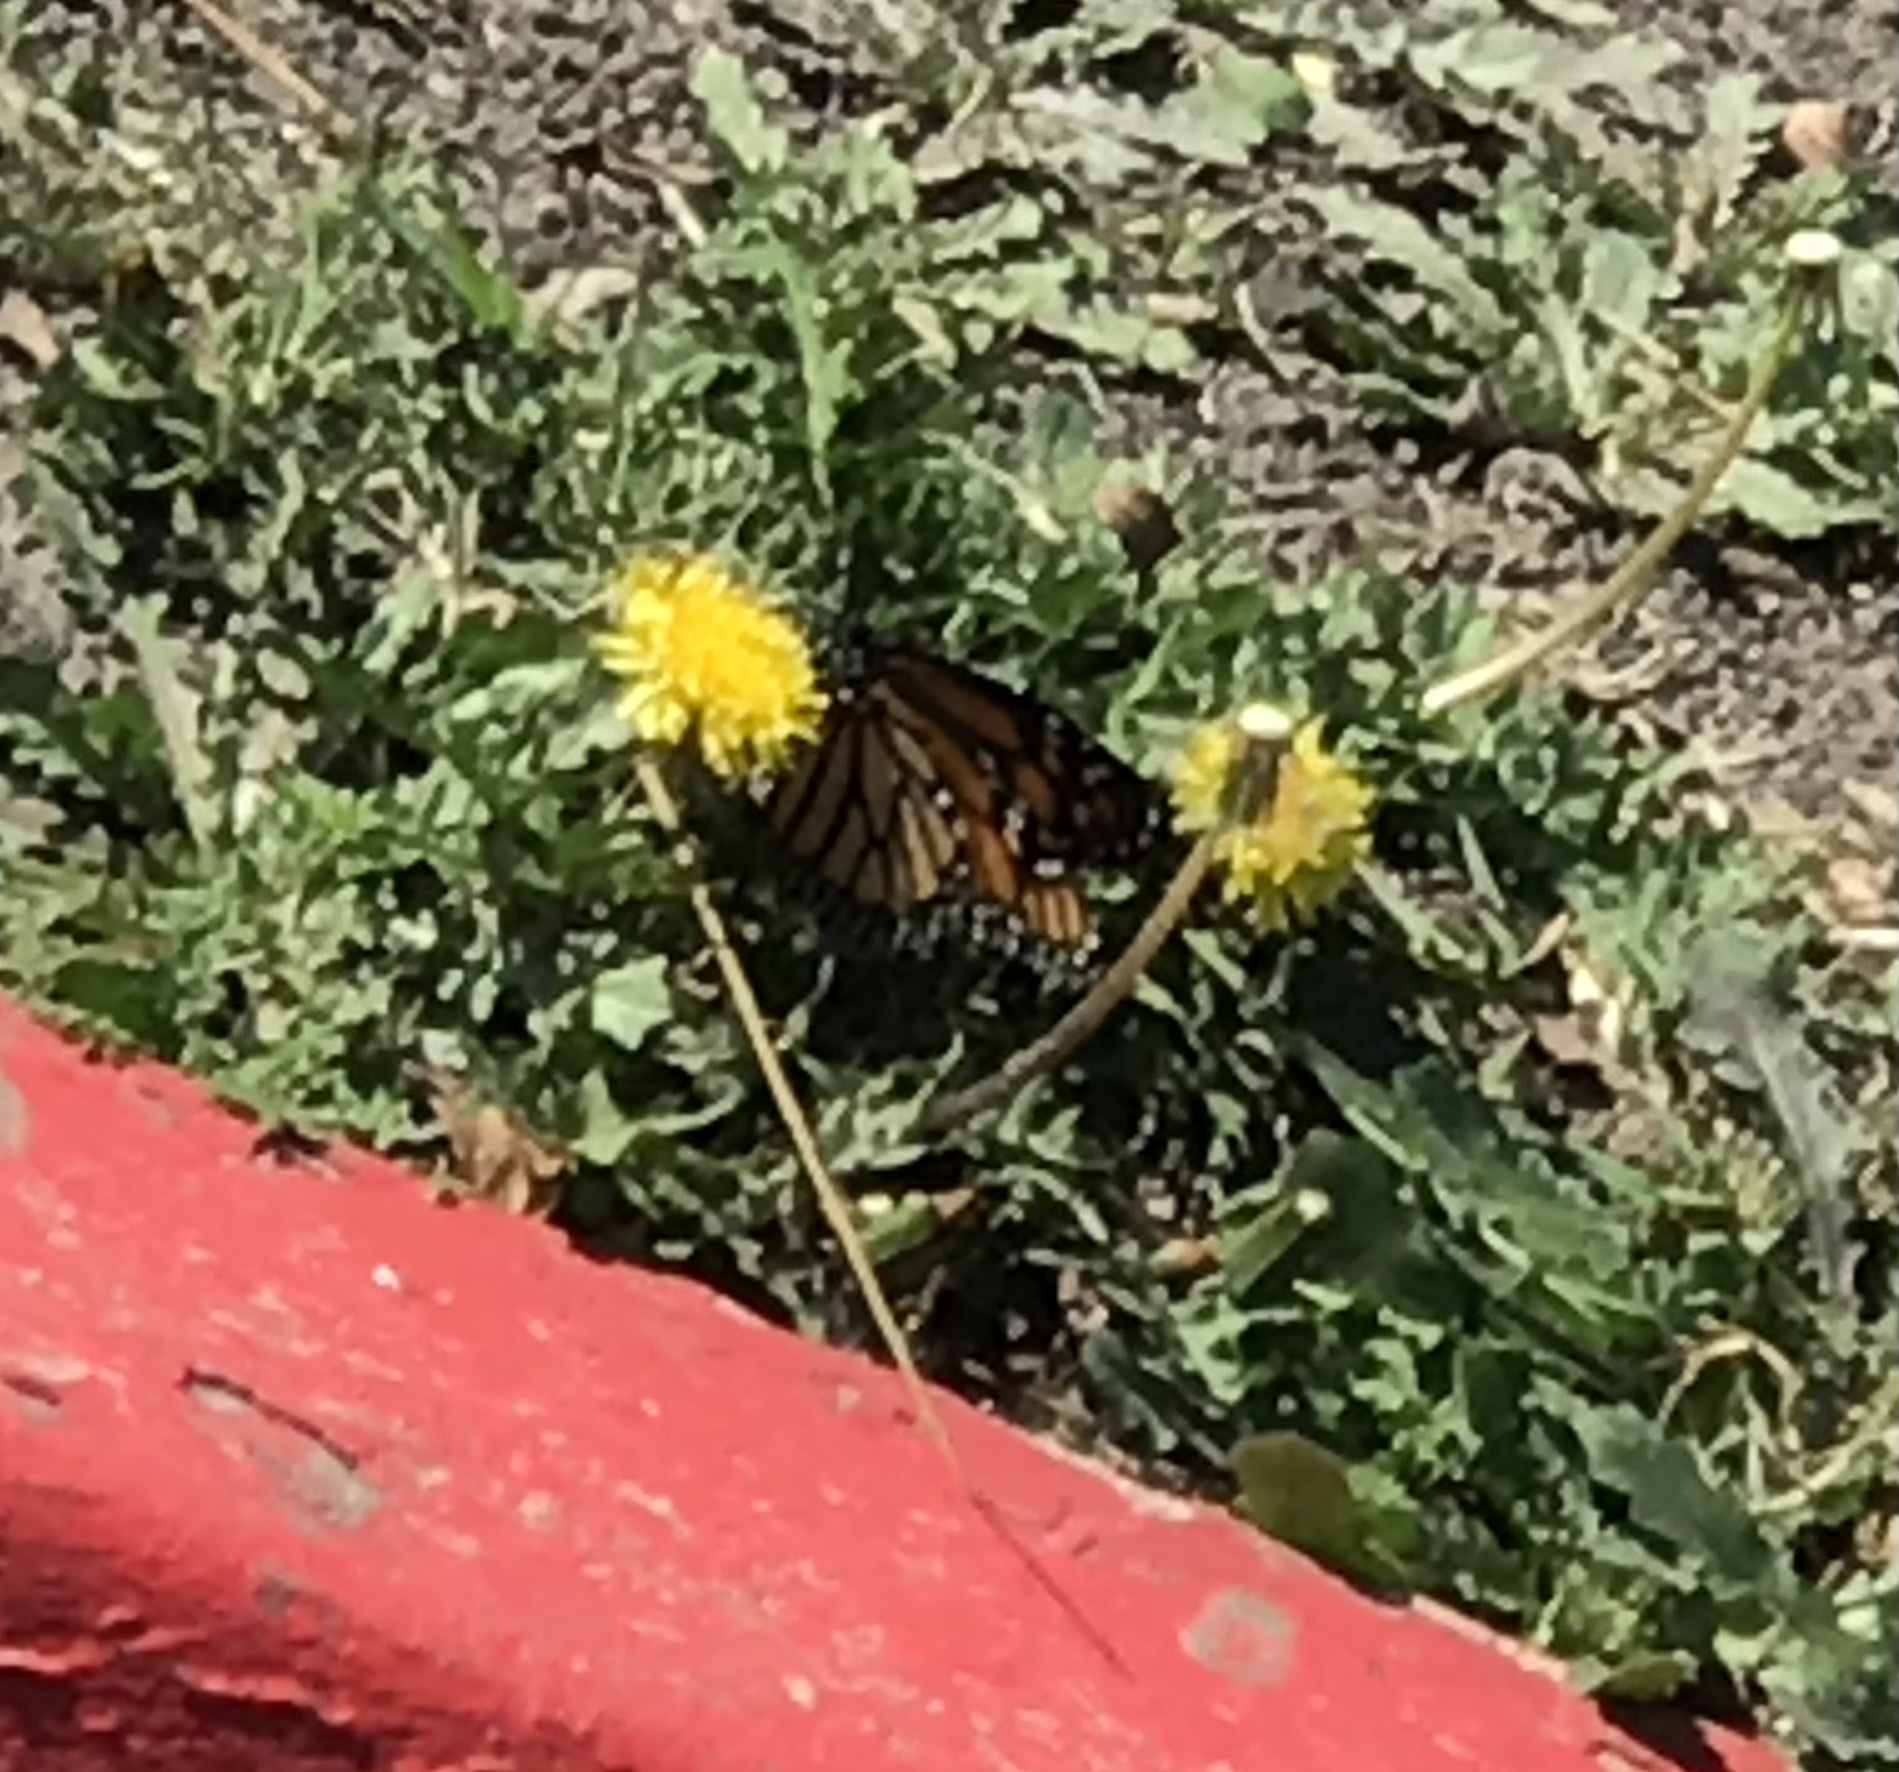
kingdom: Animalia
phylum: Arthropoda
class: Insecta
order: Lepidoptera
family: Nymphalidae
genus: Danaus
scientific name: Danaus plexippus
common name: Monarch
